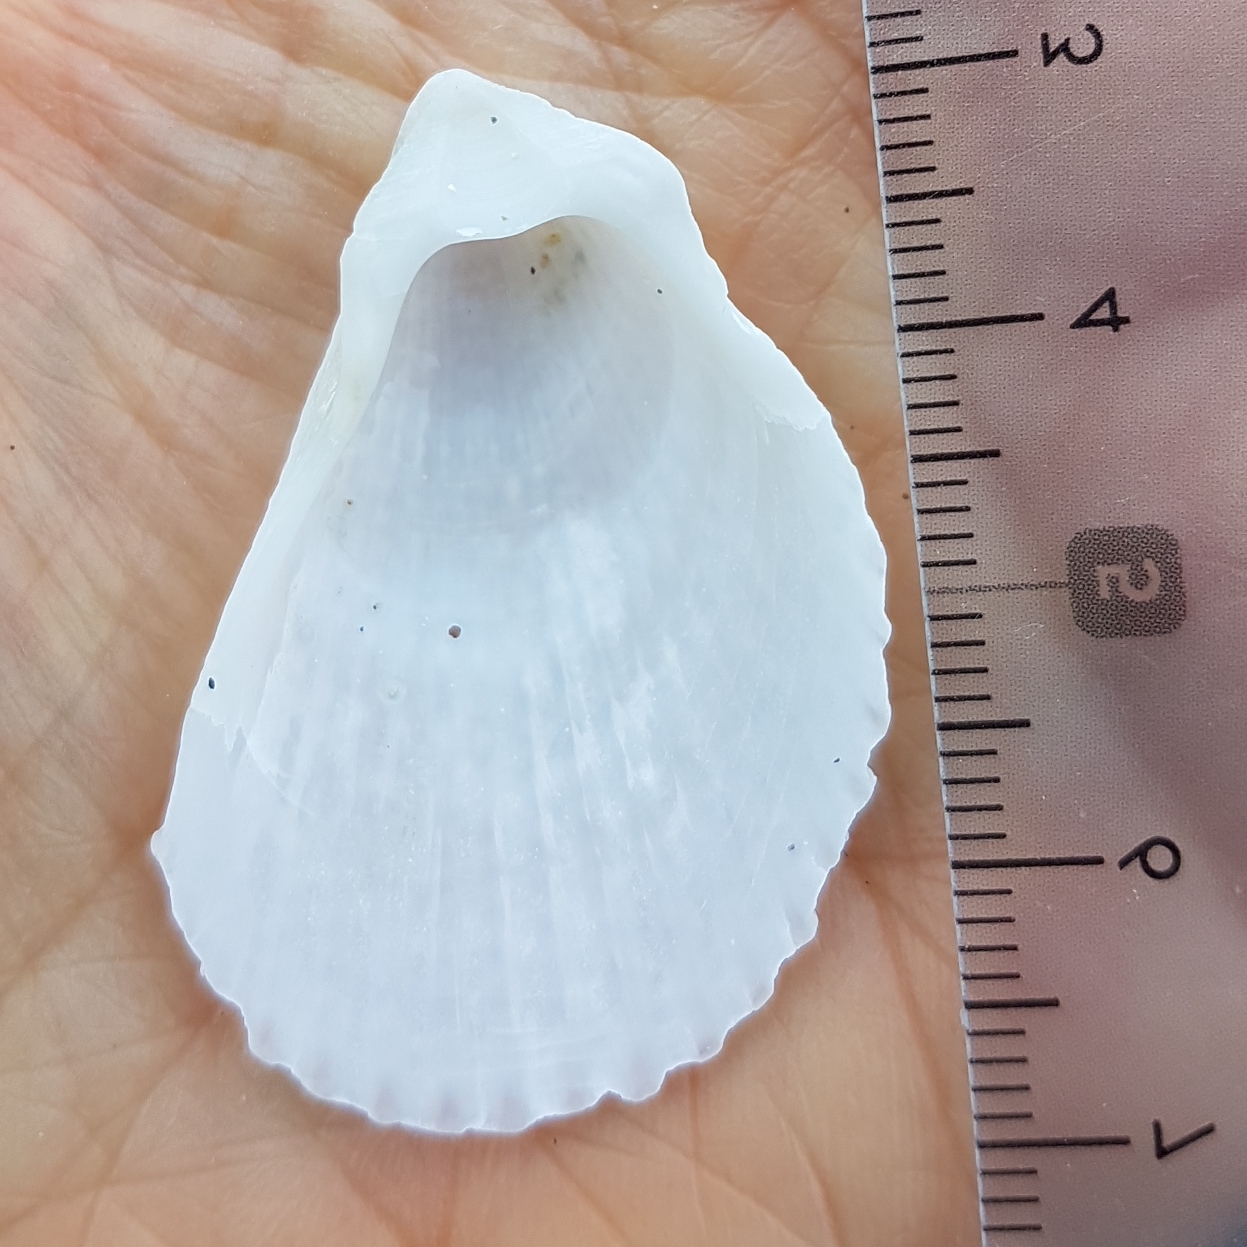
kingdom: Animalia
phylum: Mollusca
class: Bivalvia
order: Limida
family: Limidae
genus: Lima
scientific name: Lima lima
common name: Frilled file shell
